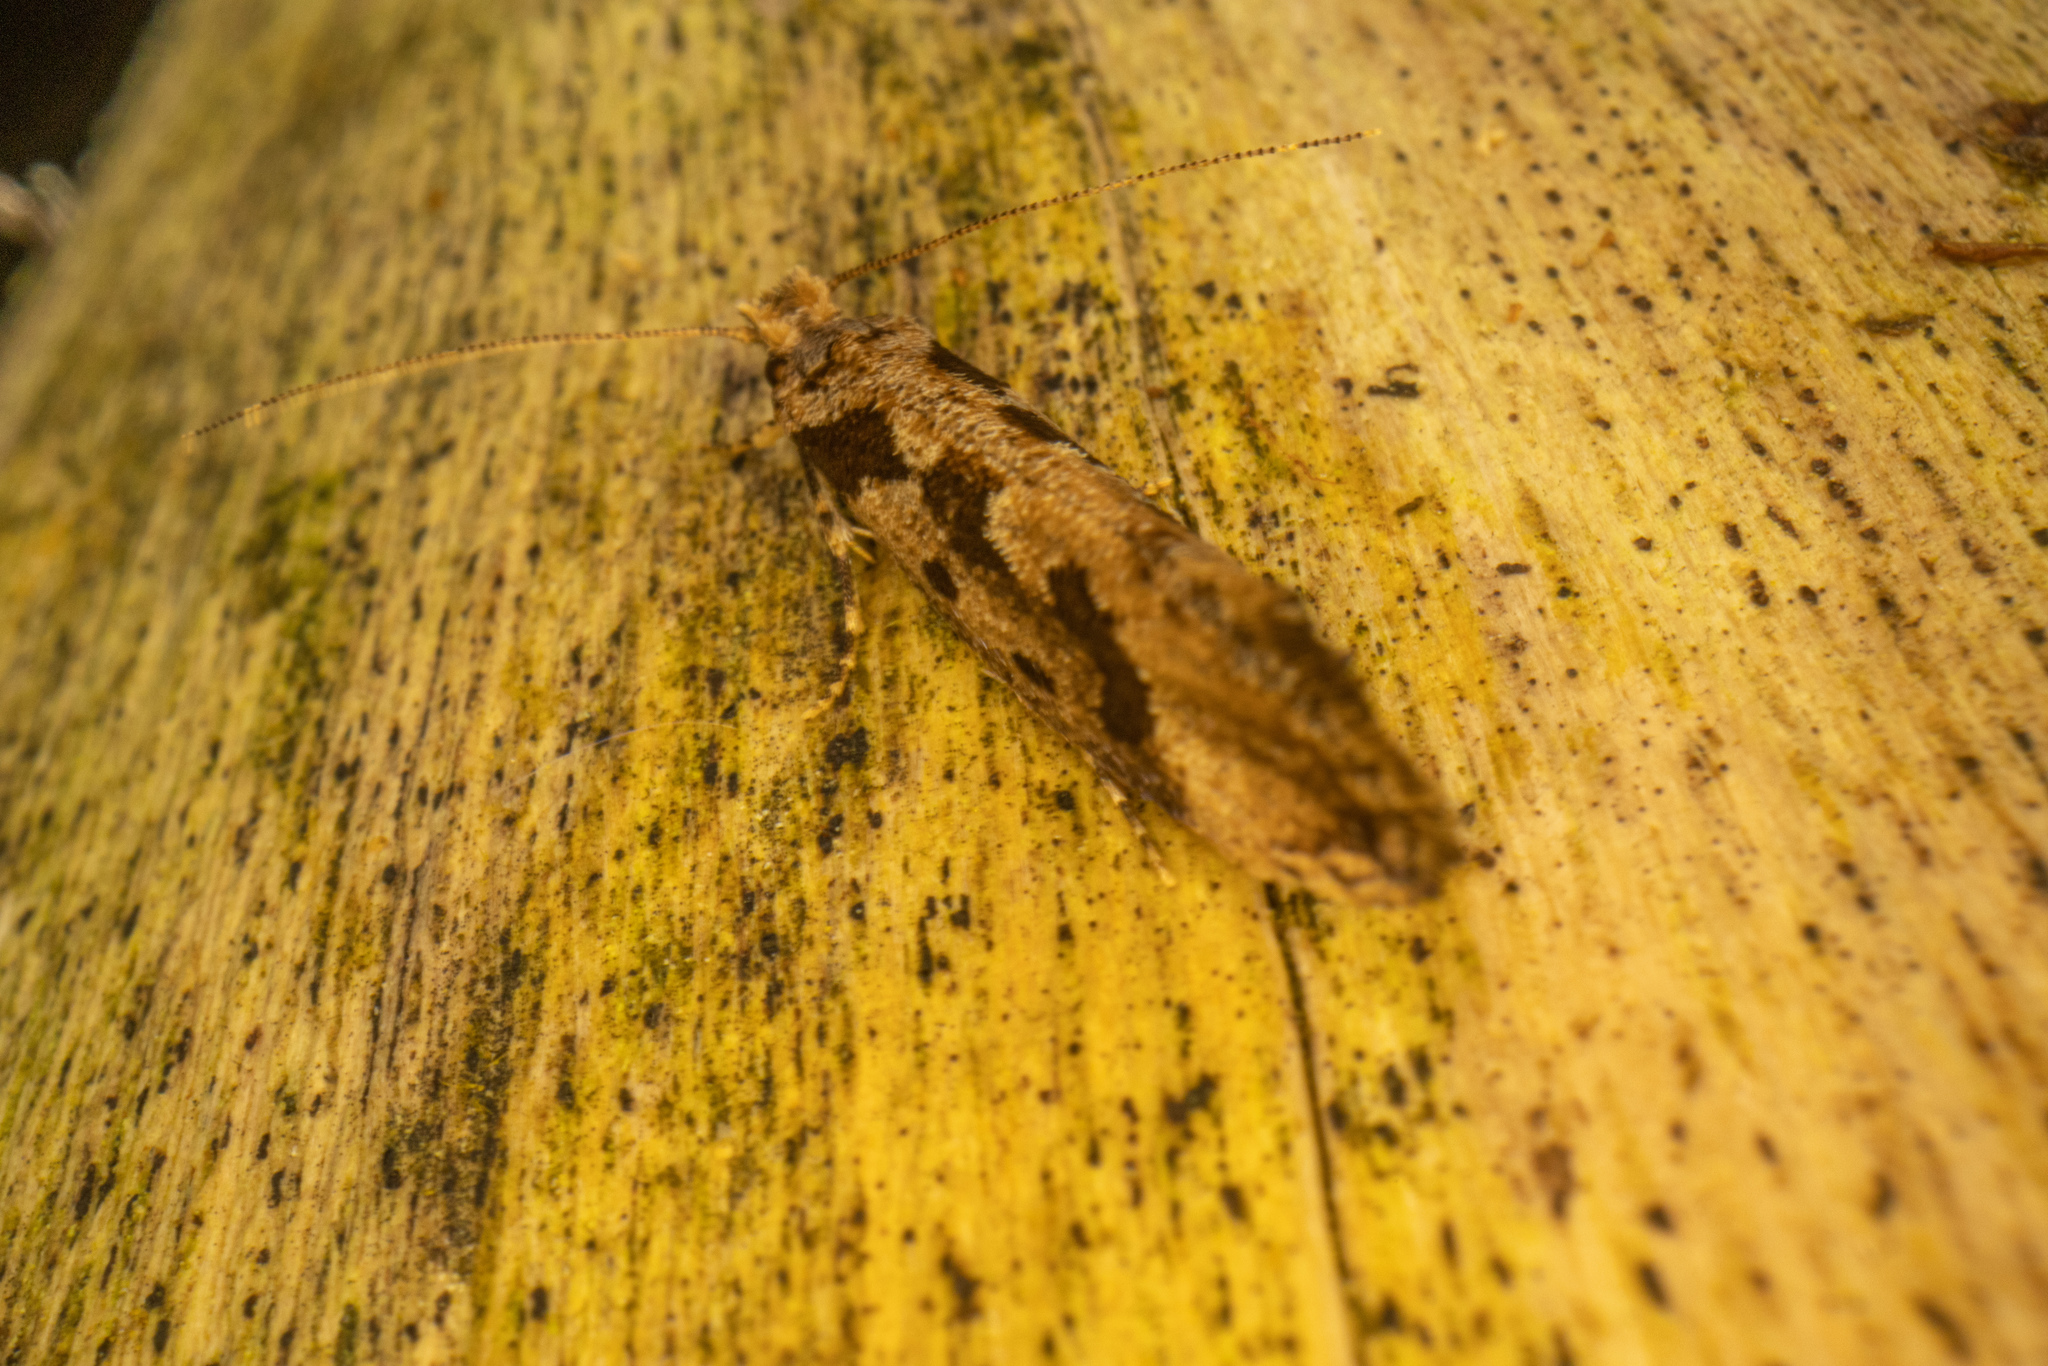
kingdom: Animalia
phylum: Arthropoda
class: Insecta
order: Lepidoptera
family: Tineidae
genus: Erechthias
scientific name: Erechthias capnitis
